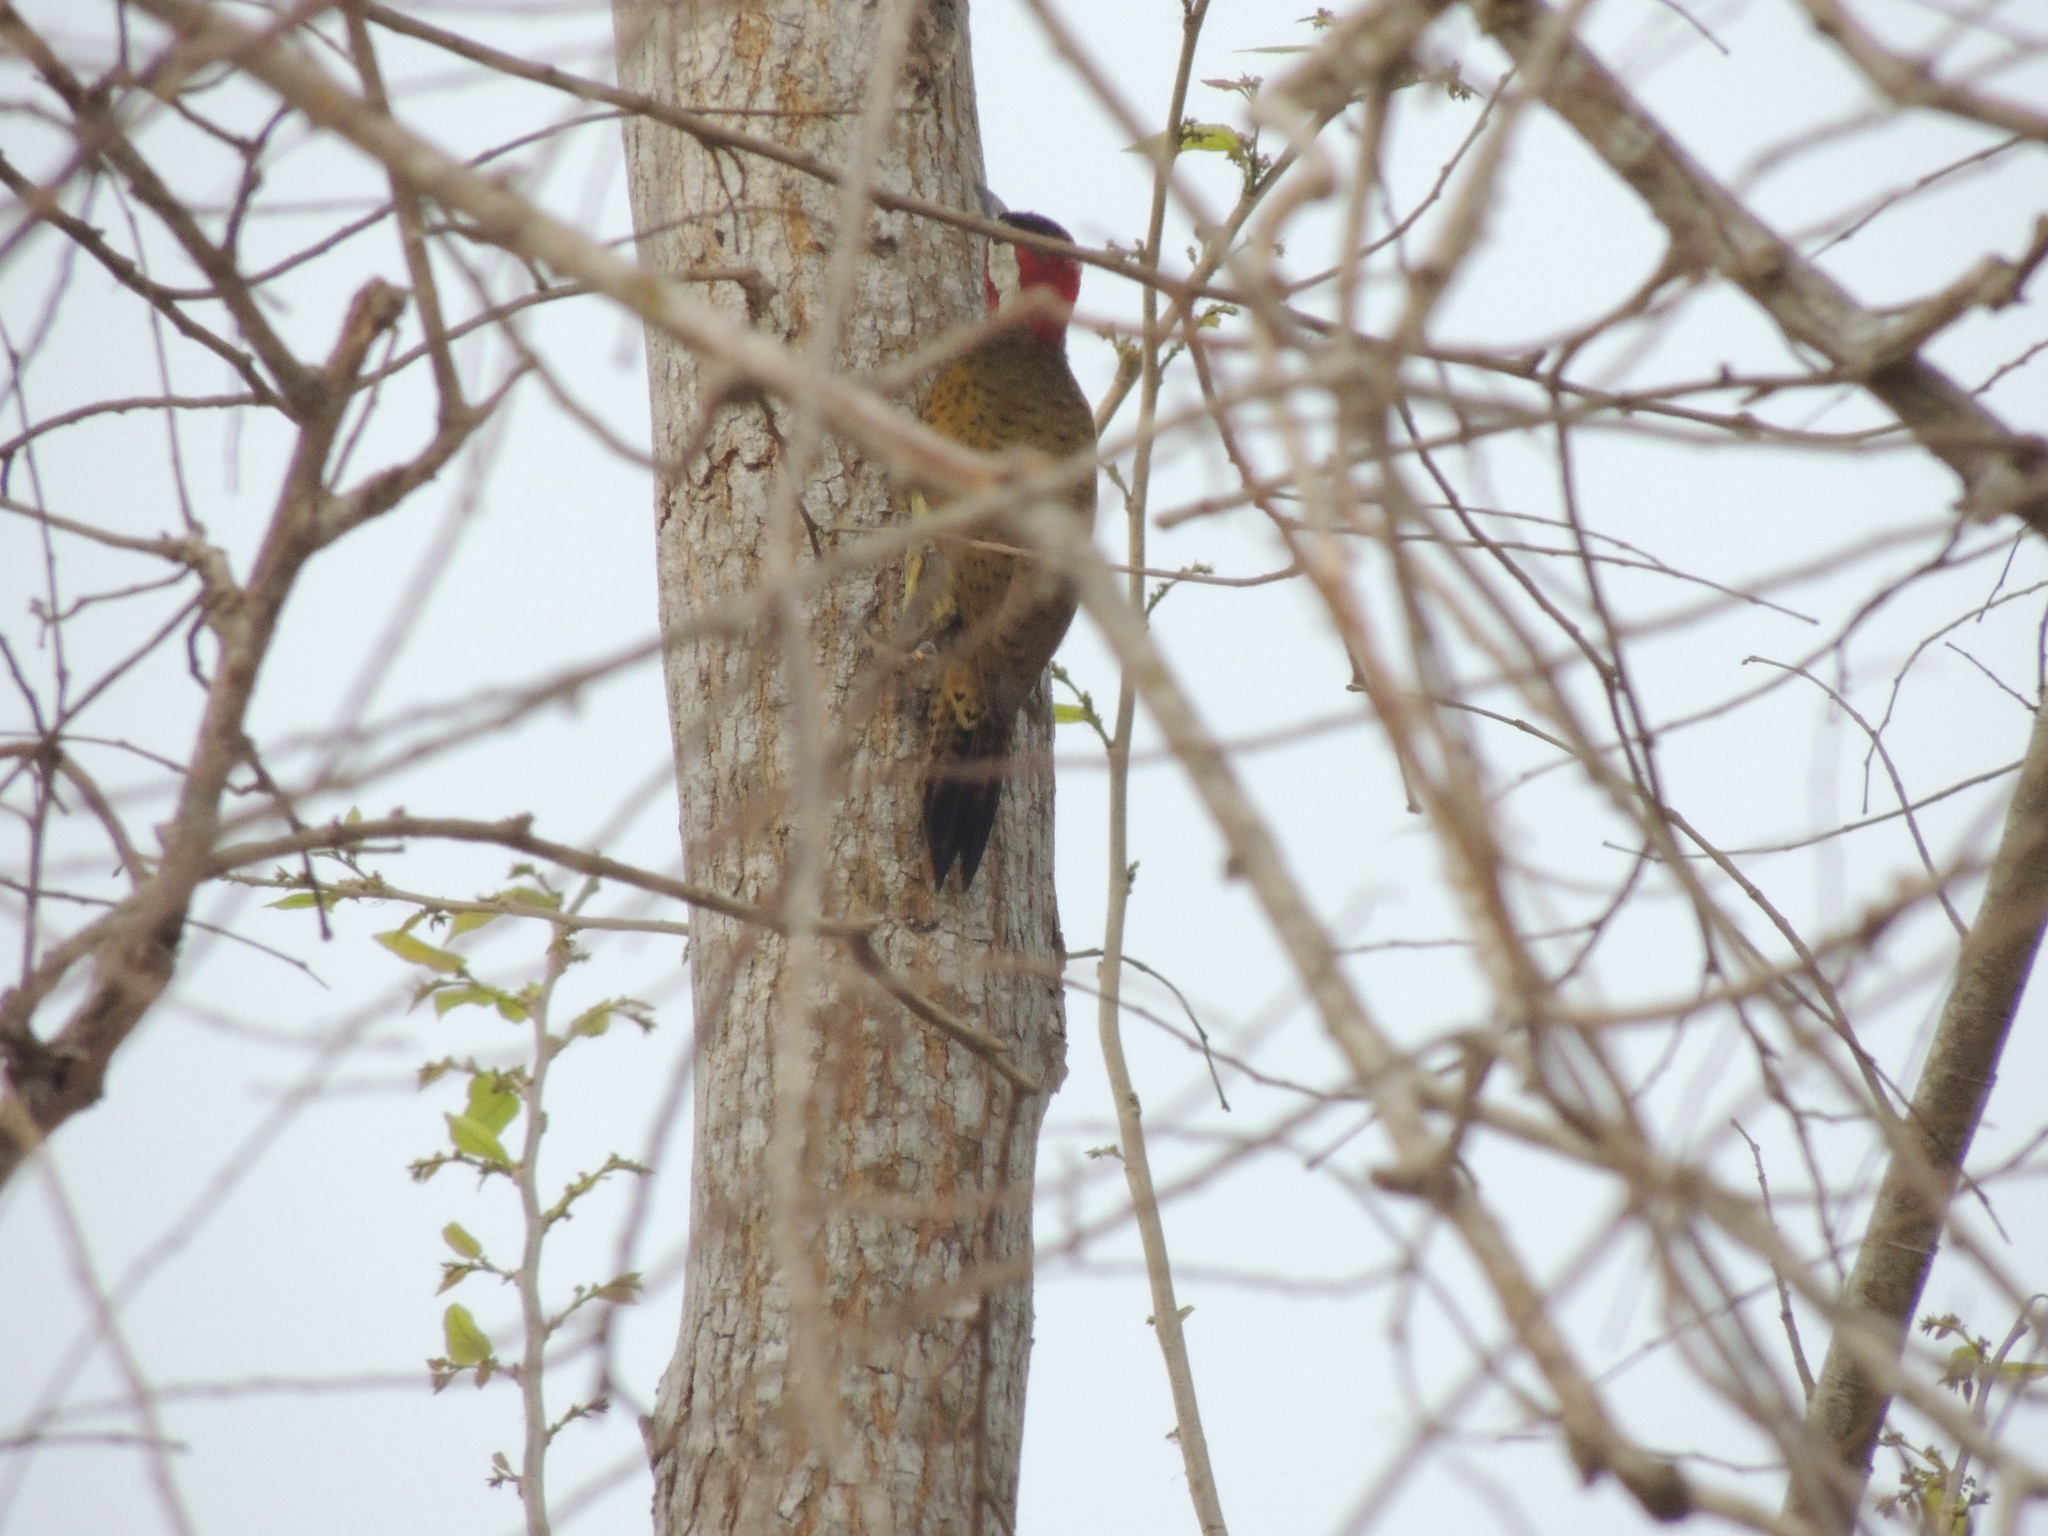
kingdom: Animalia
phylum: Chordata
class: Aves
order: Piciformes
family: Picidae
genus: Colaptes
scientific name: Colaptes punctigula
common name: Spot-breasted woodpecker
